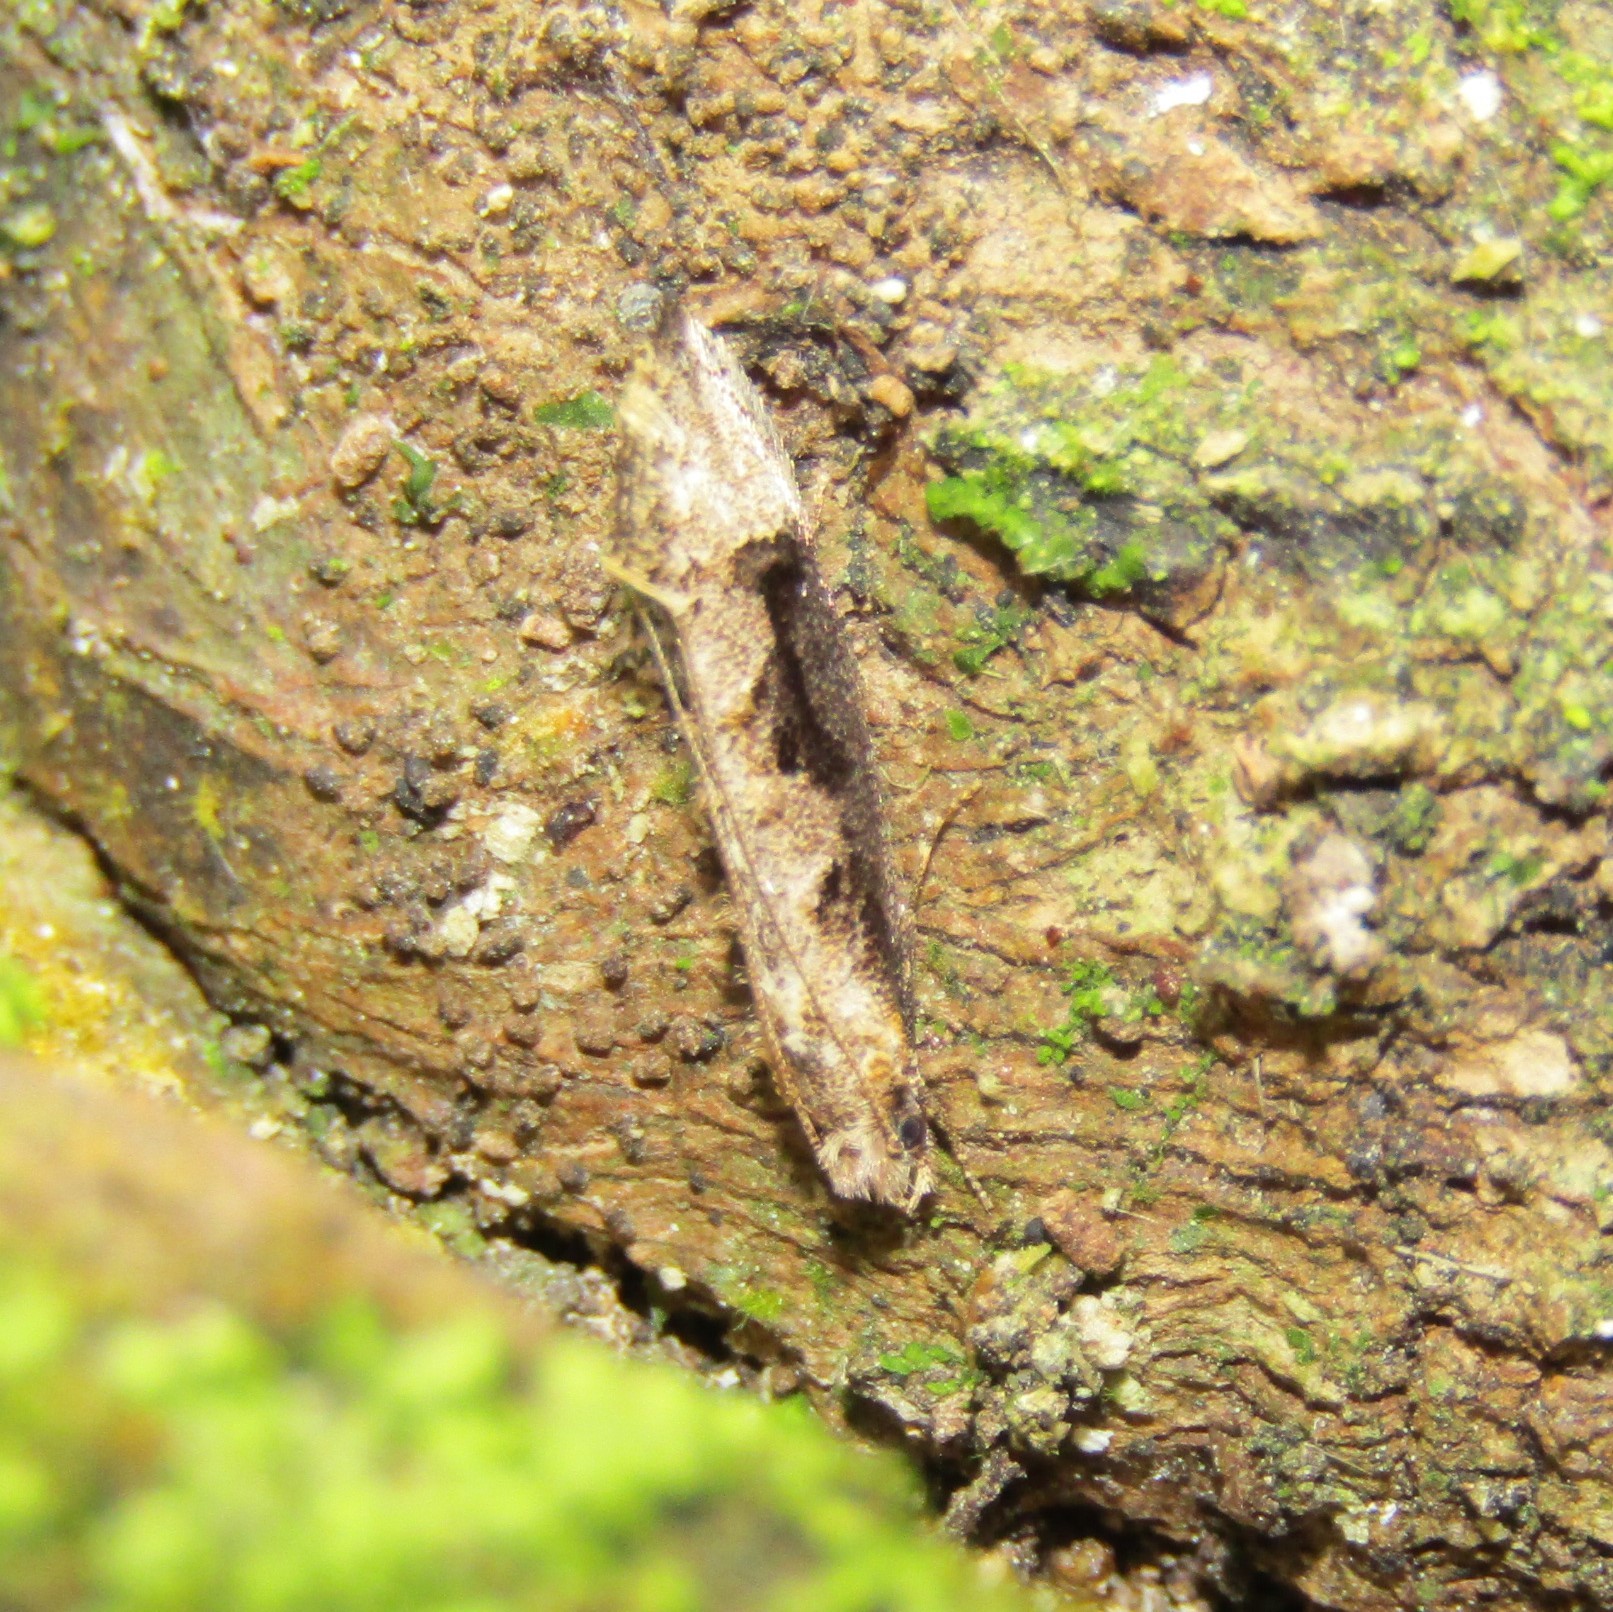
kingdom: Animalia
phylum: Arthropoda
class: Insecta
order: Lepidoptera
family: Tineidae
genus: Trithamnora
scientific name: Trithamnora certella
